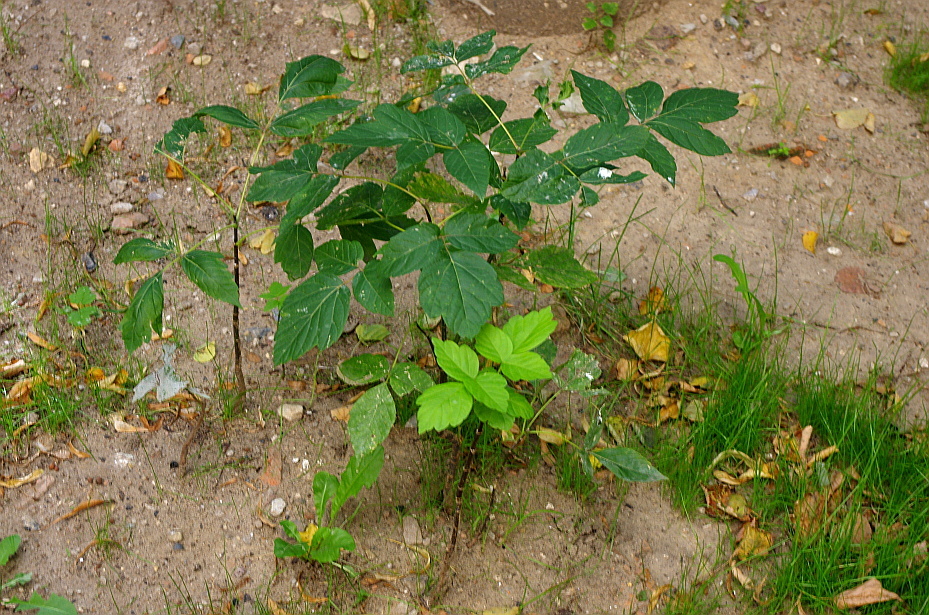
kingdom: Plantae
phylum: Tracheophyta
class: Magnoliopsida
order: Sapindales
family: Sapindaceae
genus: Acer
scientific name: Acer negundo
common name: Ashleaf maple
